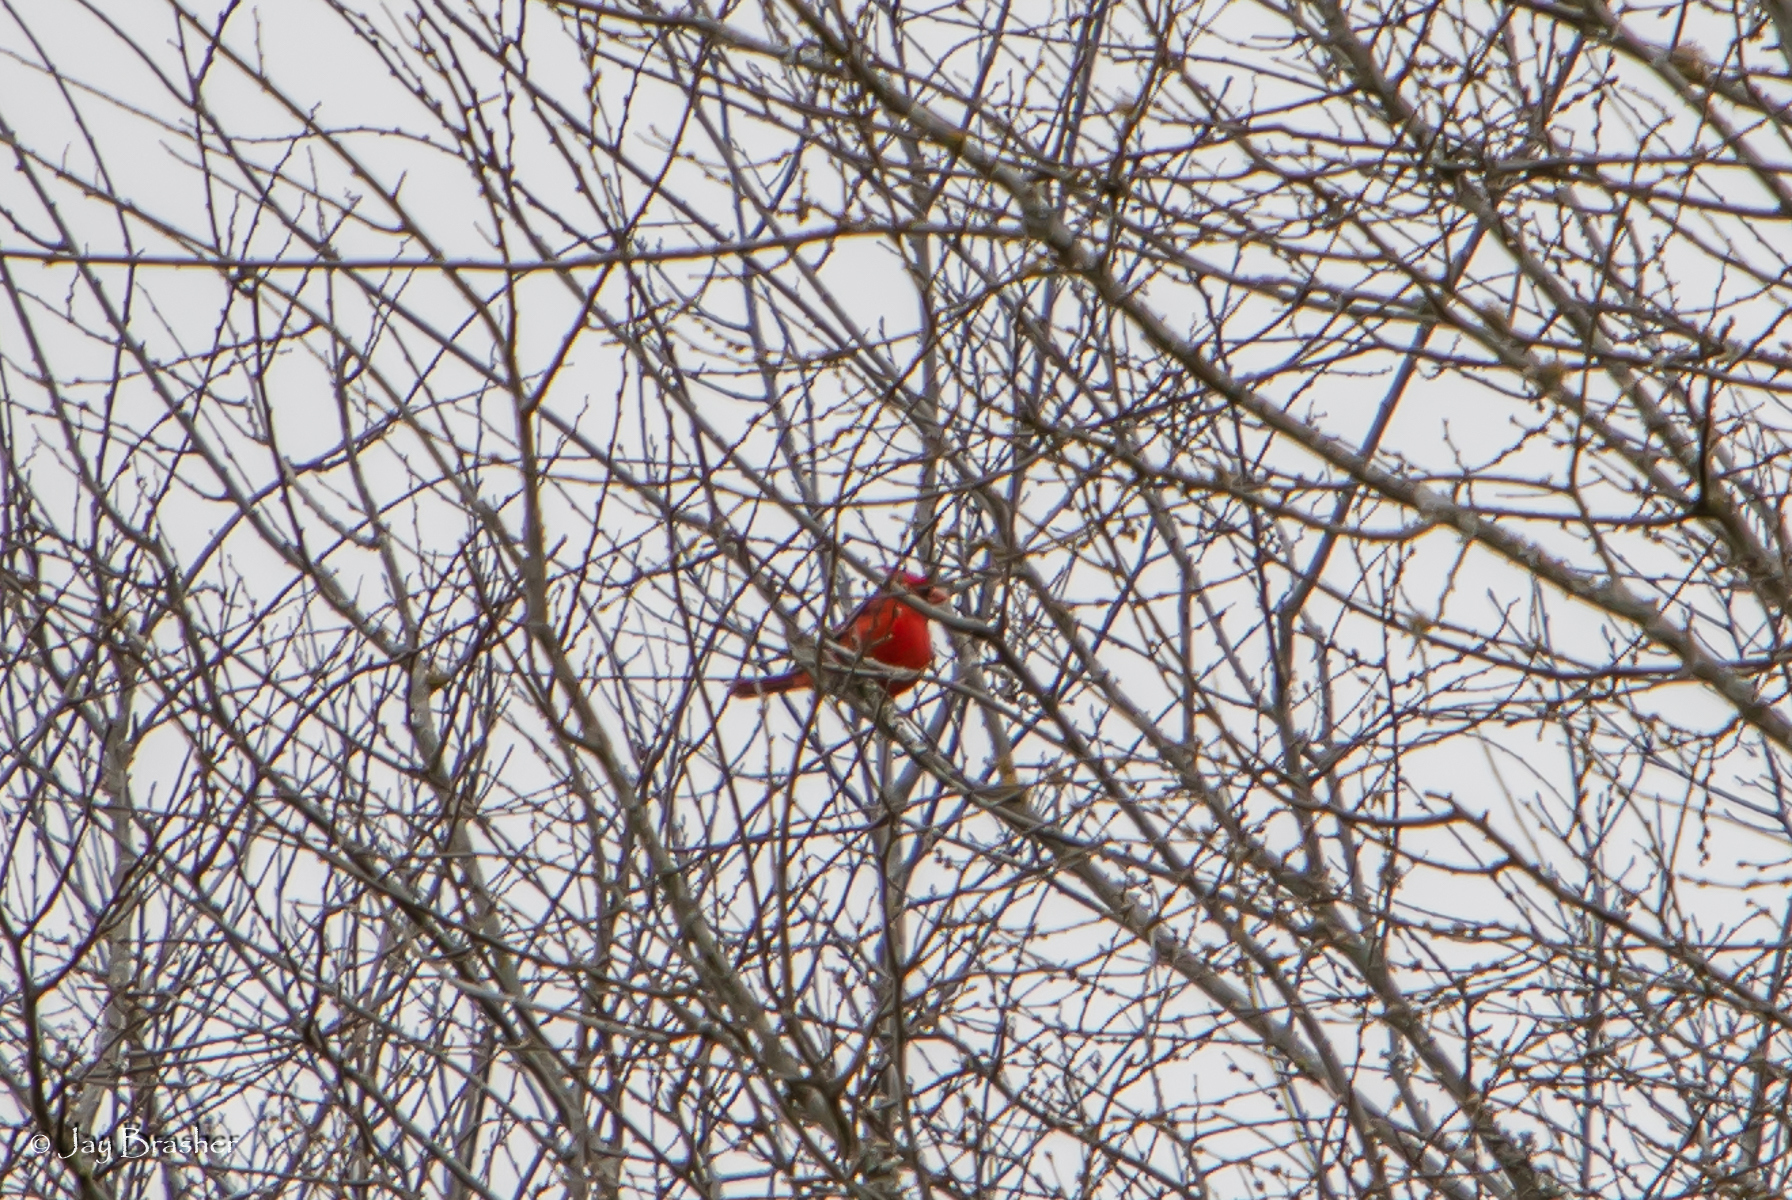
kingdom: Animalia
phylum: Chordata
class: Aves
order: Passeriformes
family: Cardinalidae
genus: Cardinalis
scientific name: Cardinalis cardinalis
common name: Northern cardinal
